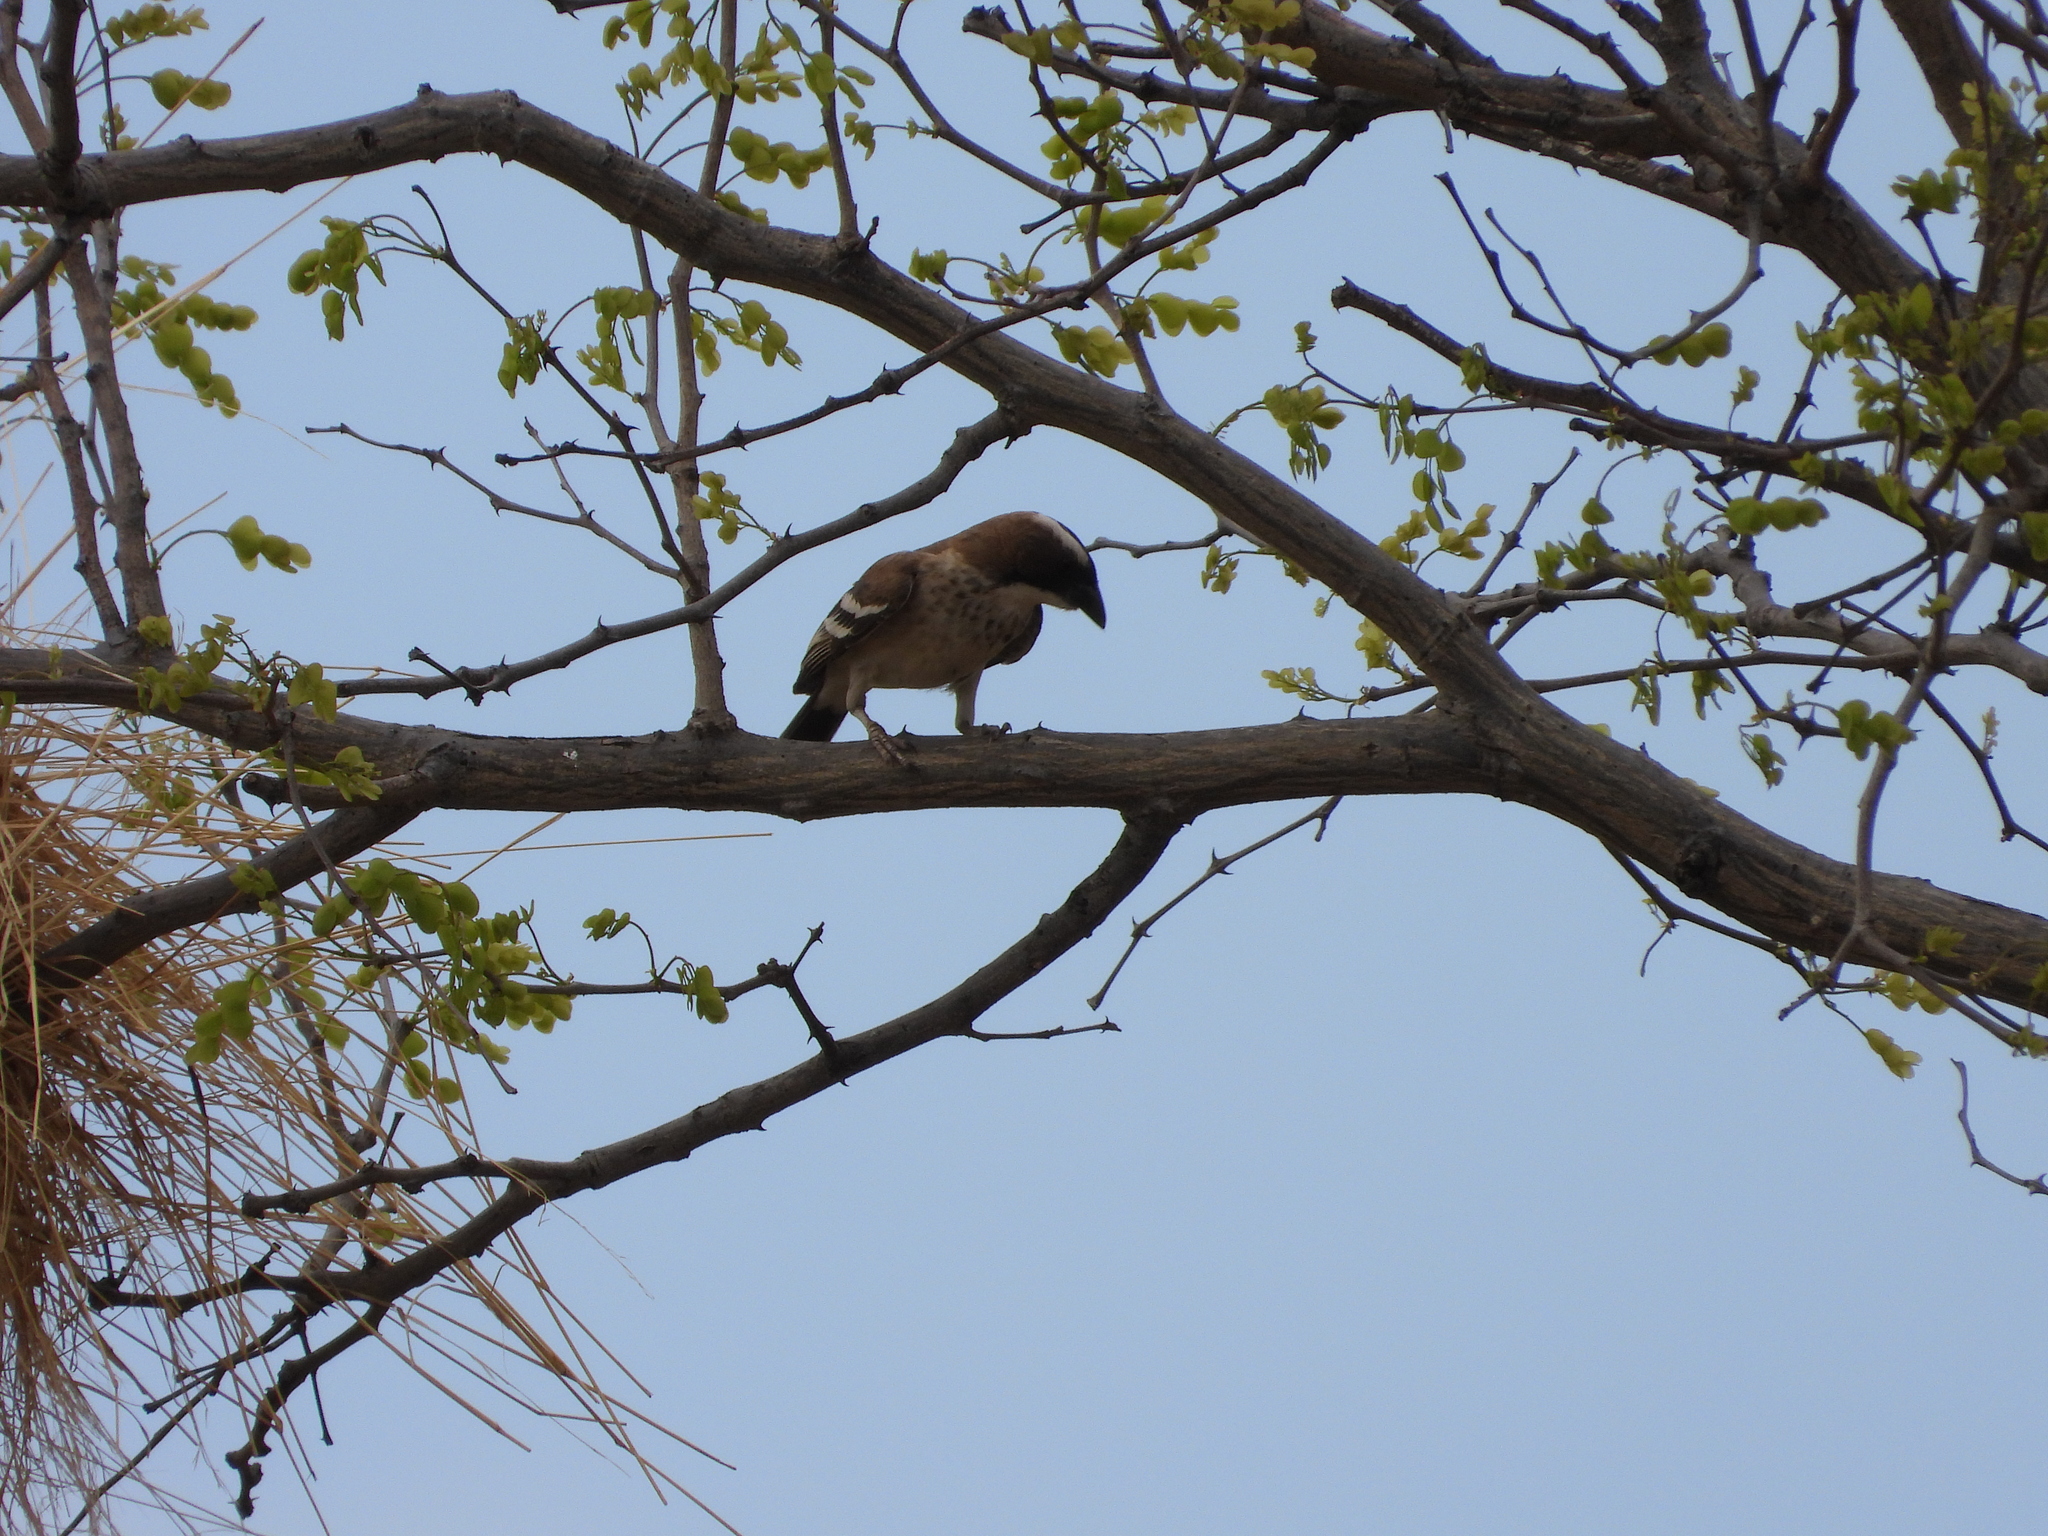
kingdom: Animalia
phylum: Chordata
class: Aves
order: Passeriformes
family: Passeridae
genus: Plocepasser
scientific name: Plocepasser mahali
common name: White-browed sparrow-weaver
